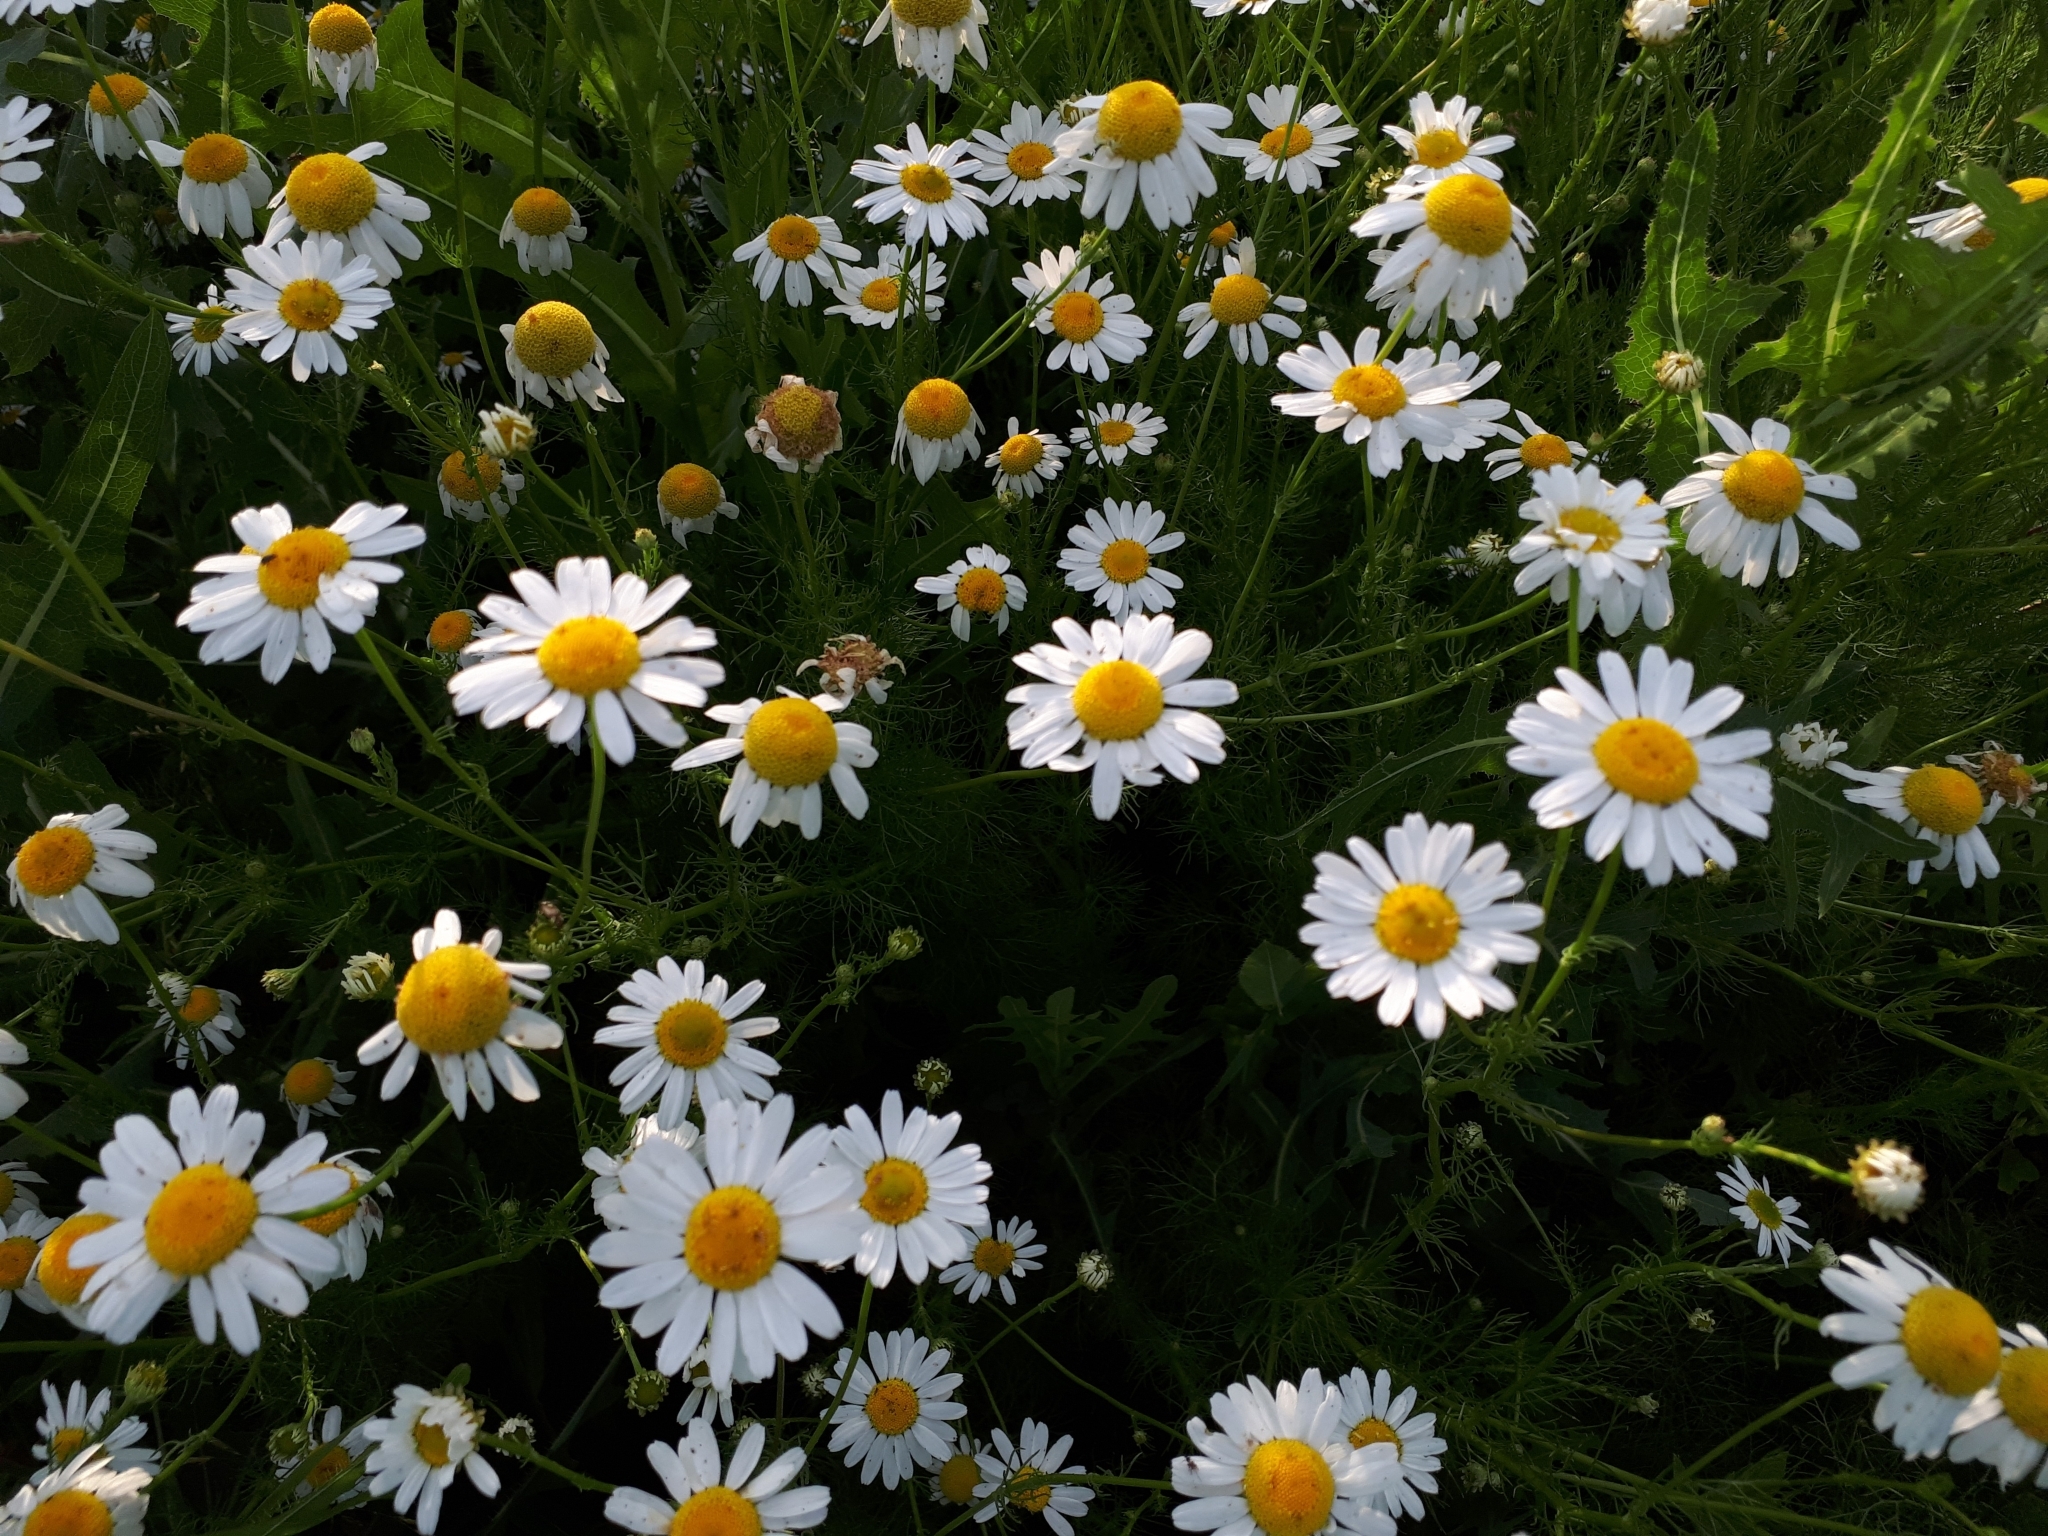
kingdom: Plantae
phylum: Tracheophyta
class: Magnoliopsida
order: Asterales
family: Asteraceae
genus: Tripleurospermum
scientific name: Tripleurospermum inodorum
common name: Scentless mayweed
